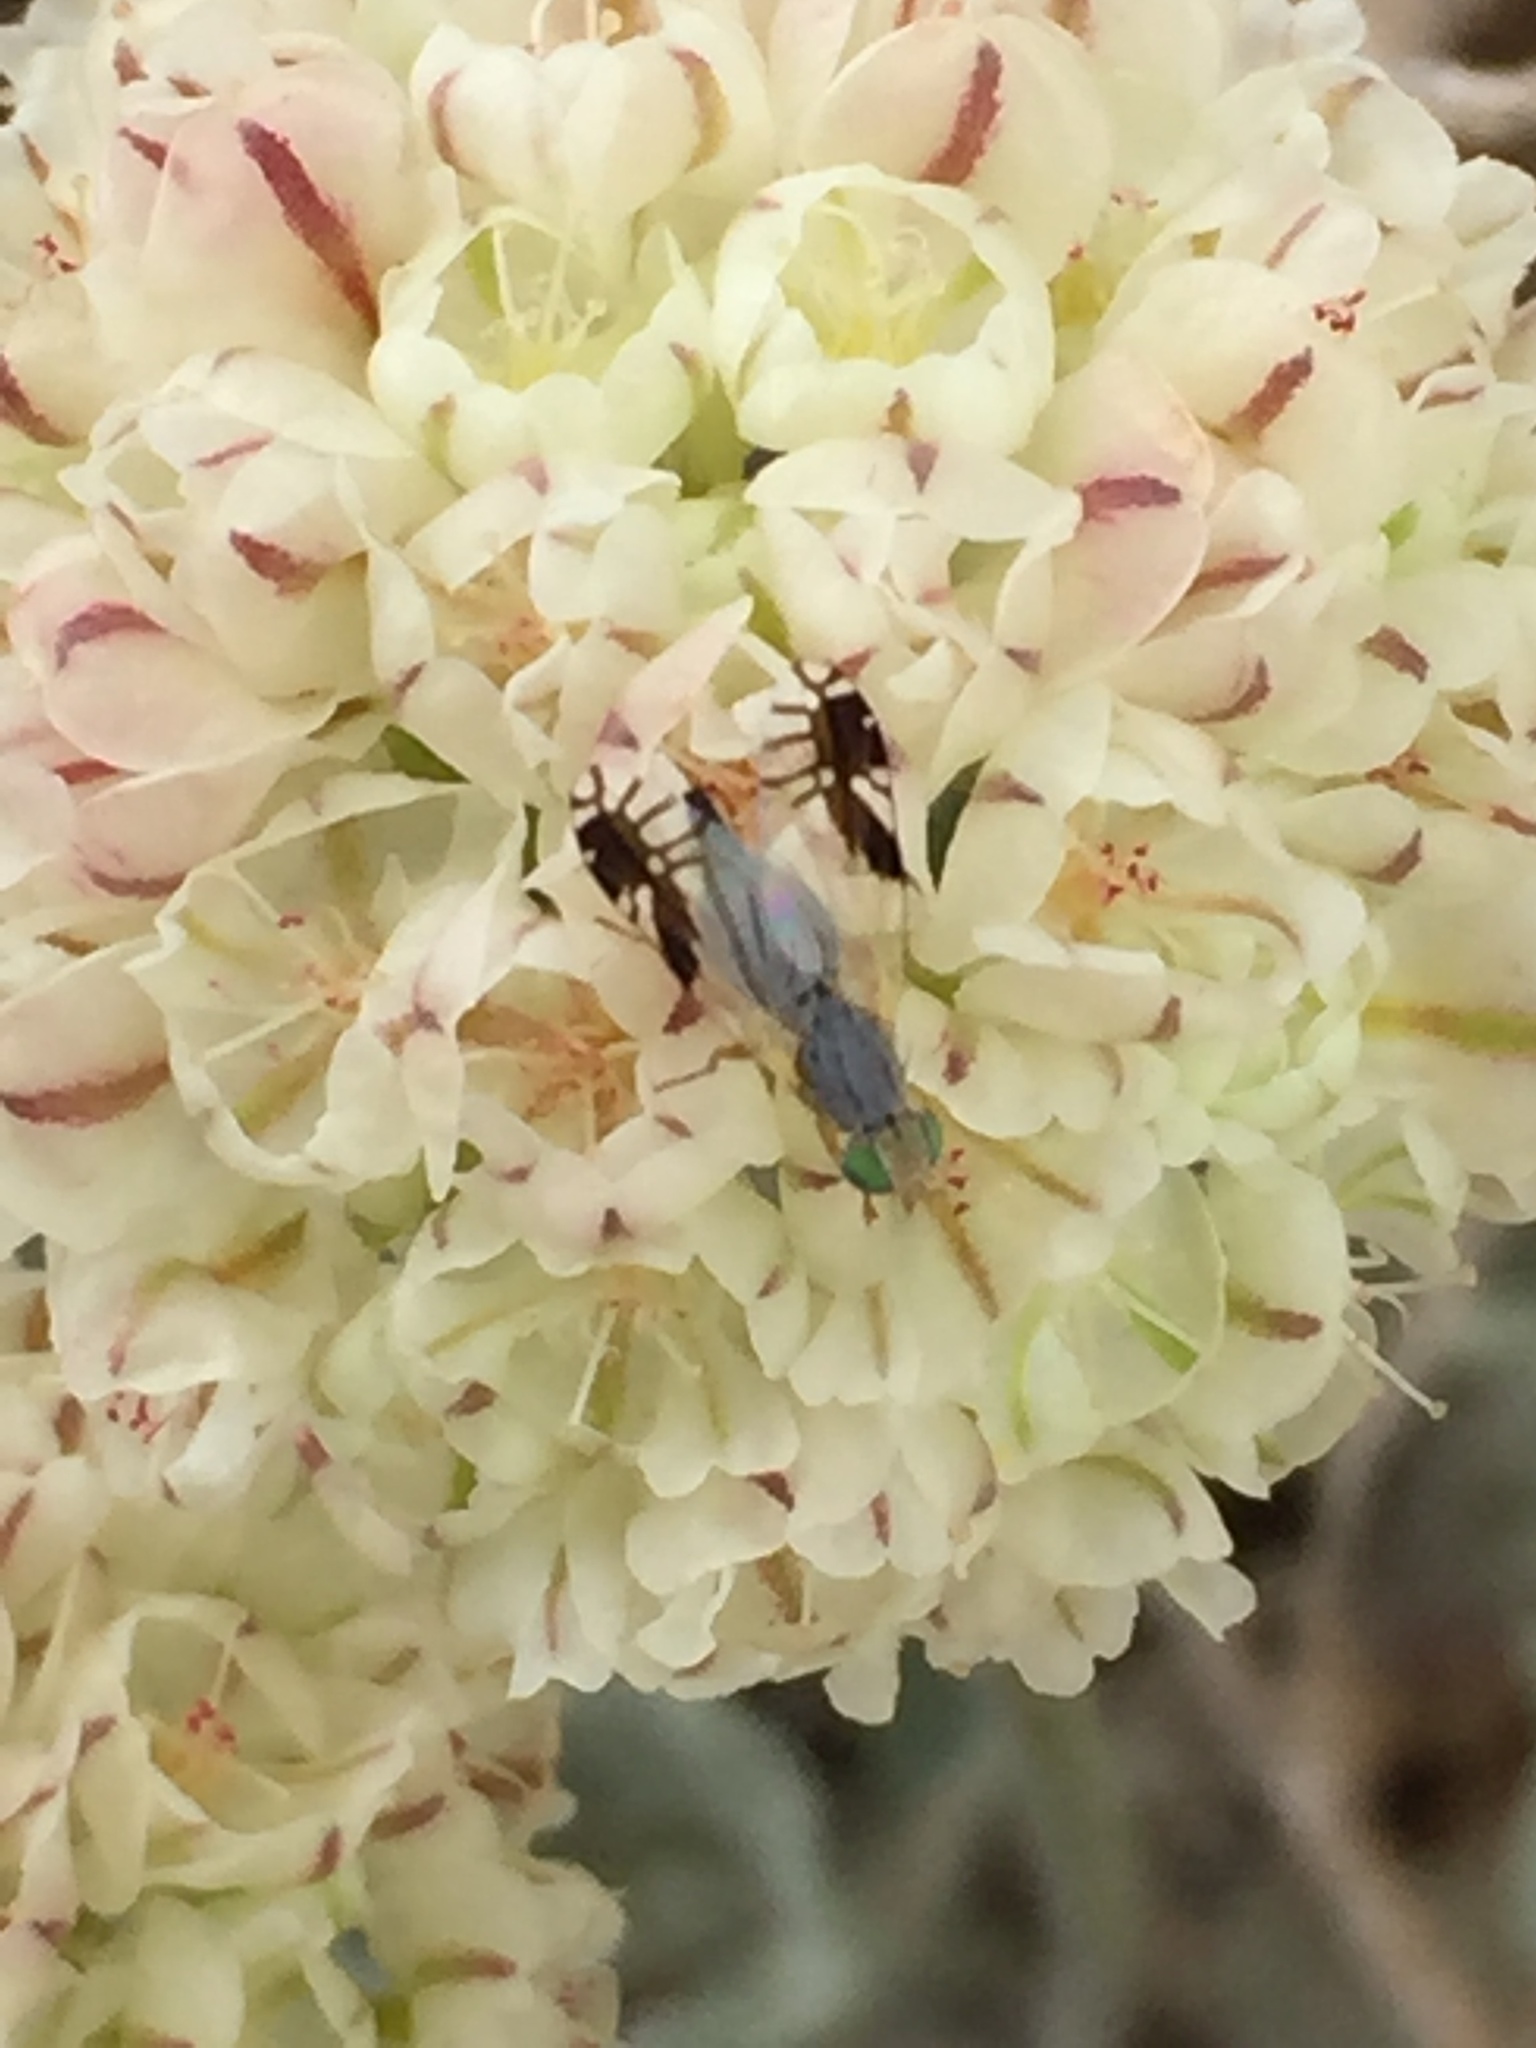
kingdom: Animalia
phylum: Arthropoda
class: Insecta
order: Diptera
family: Tephritidae
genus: Trupanea
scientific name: Trupanea nigricornis
